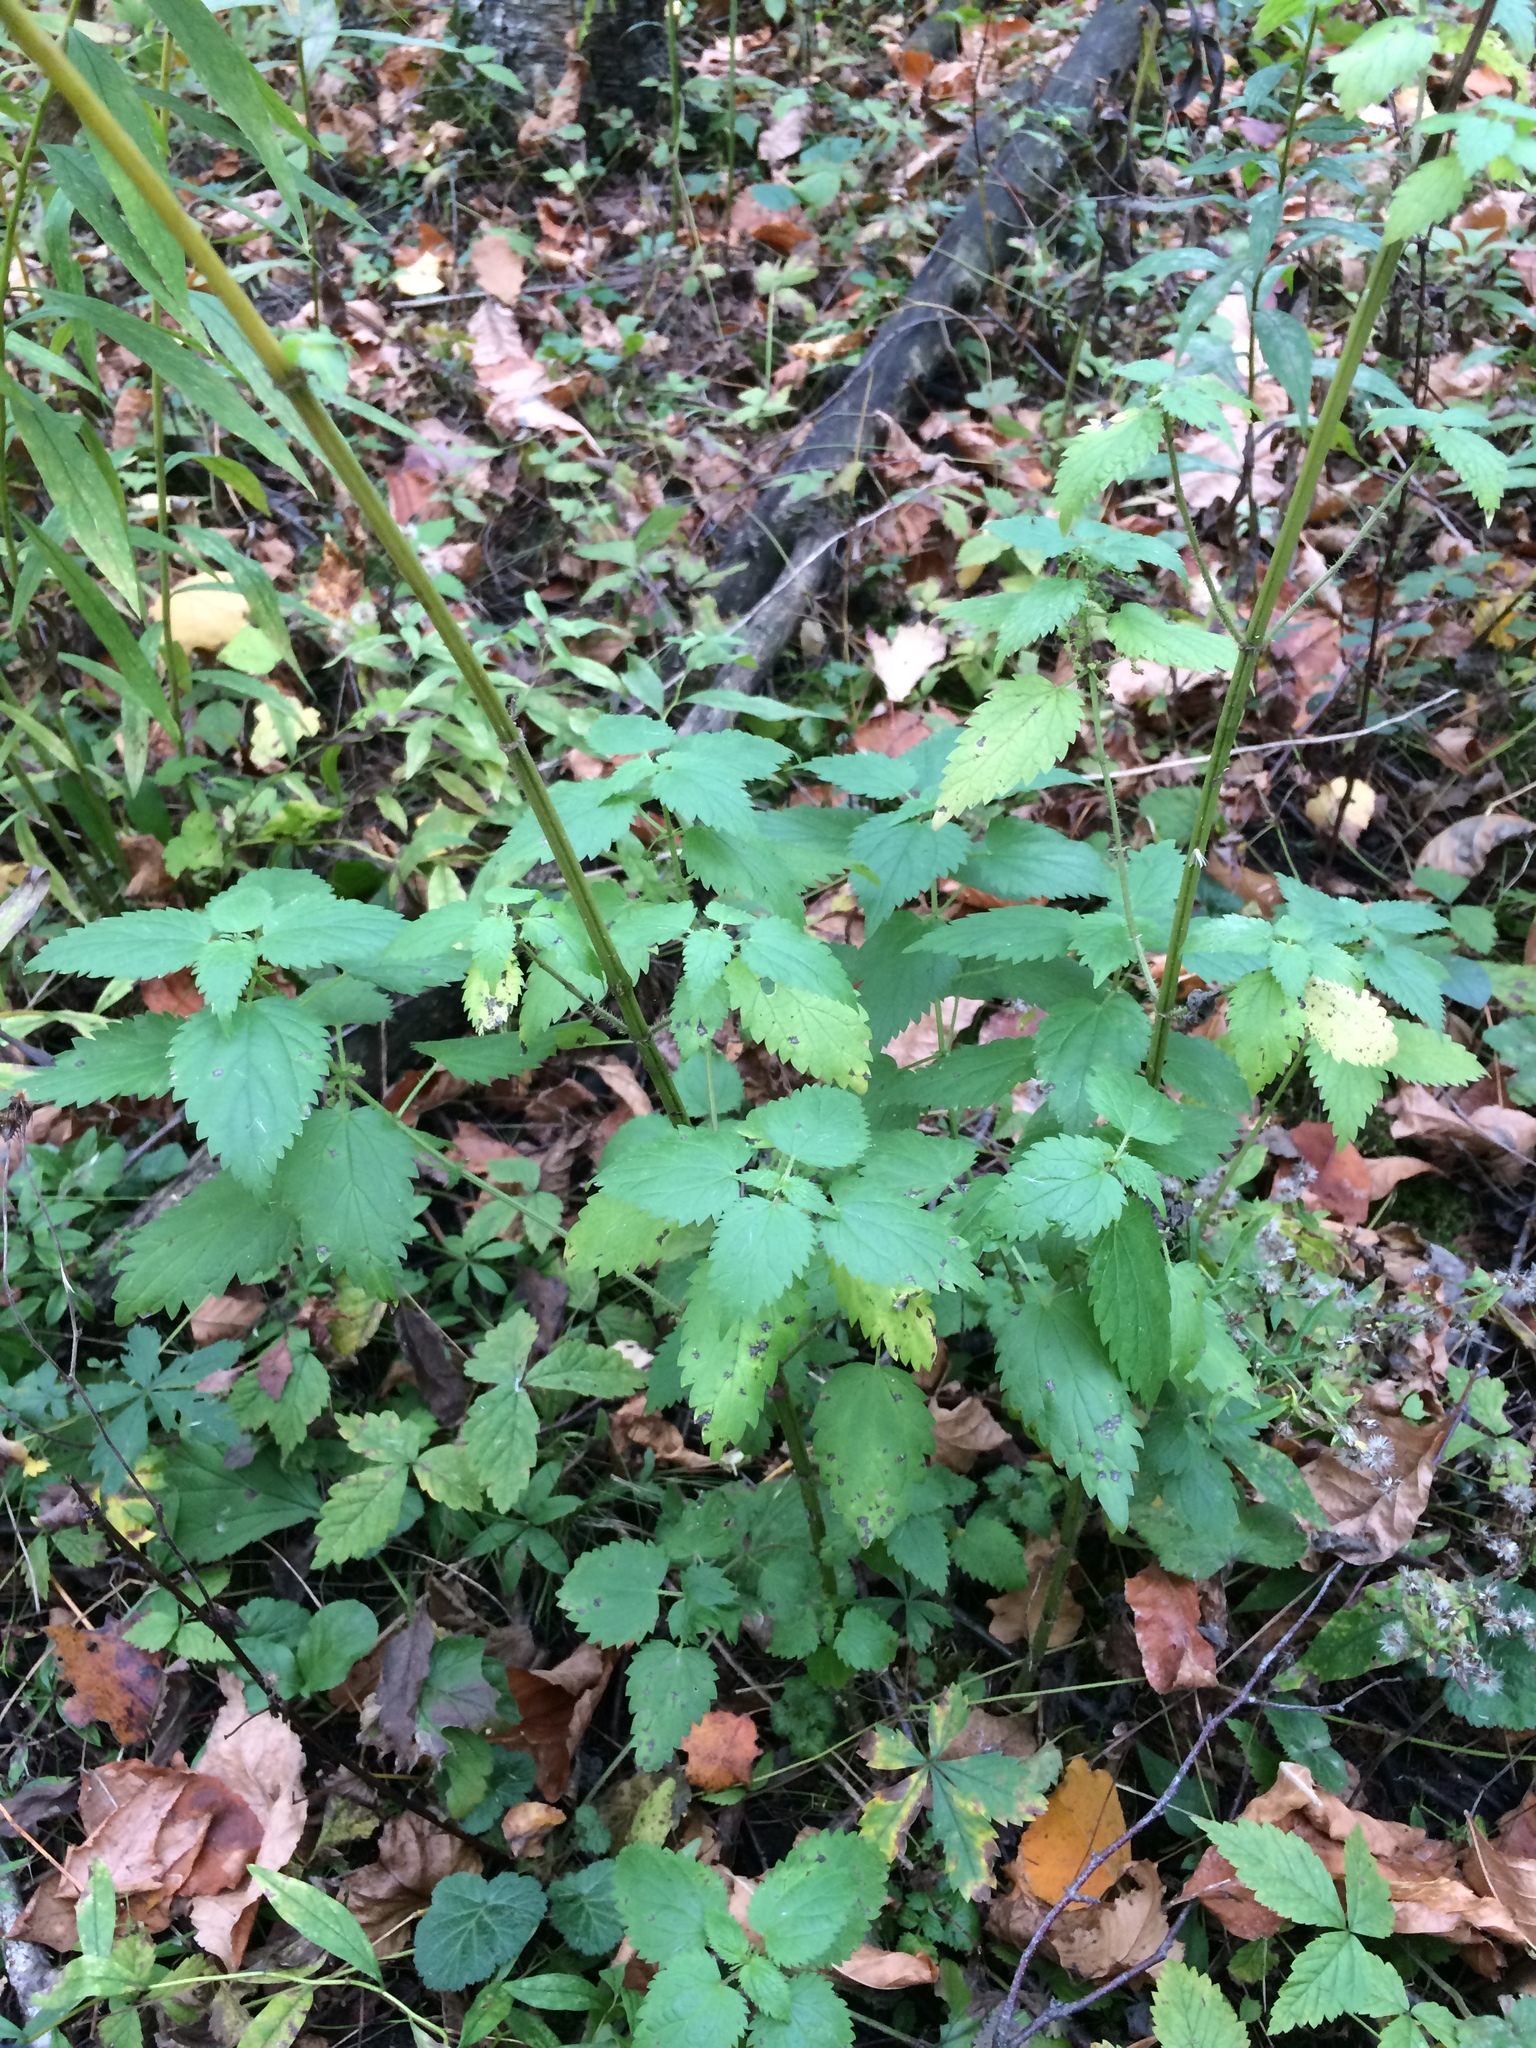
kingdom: Plantae
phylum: Tracheophyta
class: Magnoliopsida
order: Rosales
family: Urticaceae
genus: Urtica
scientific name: Urtica gracilis
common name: Slender stinging nettle
